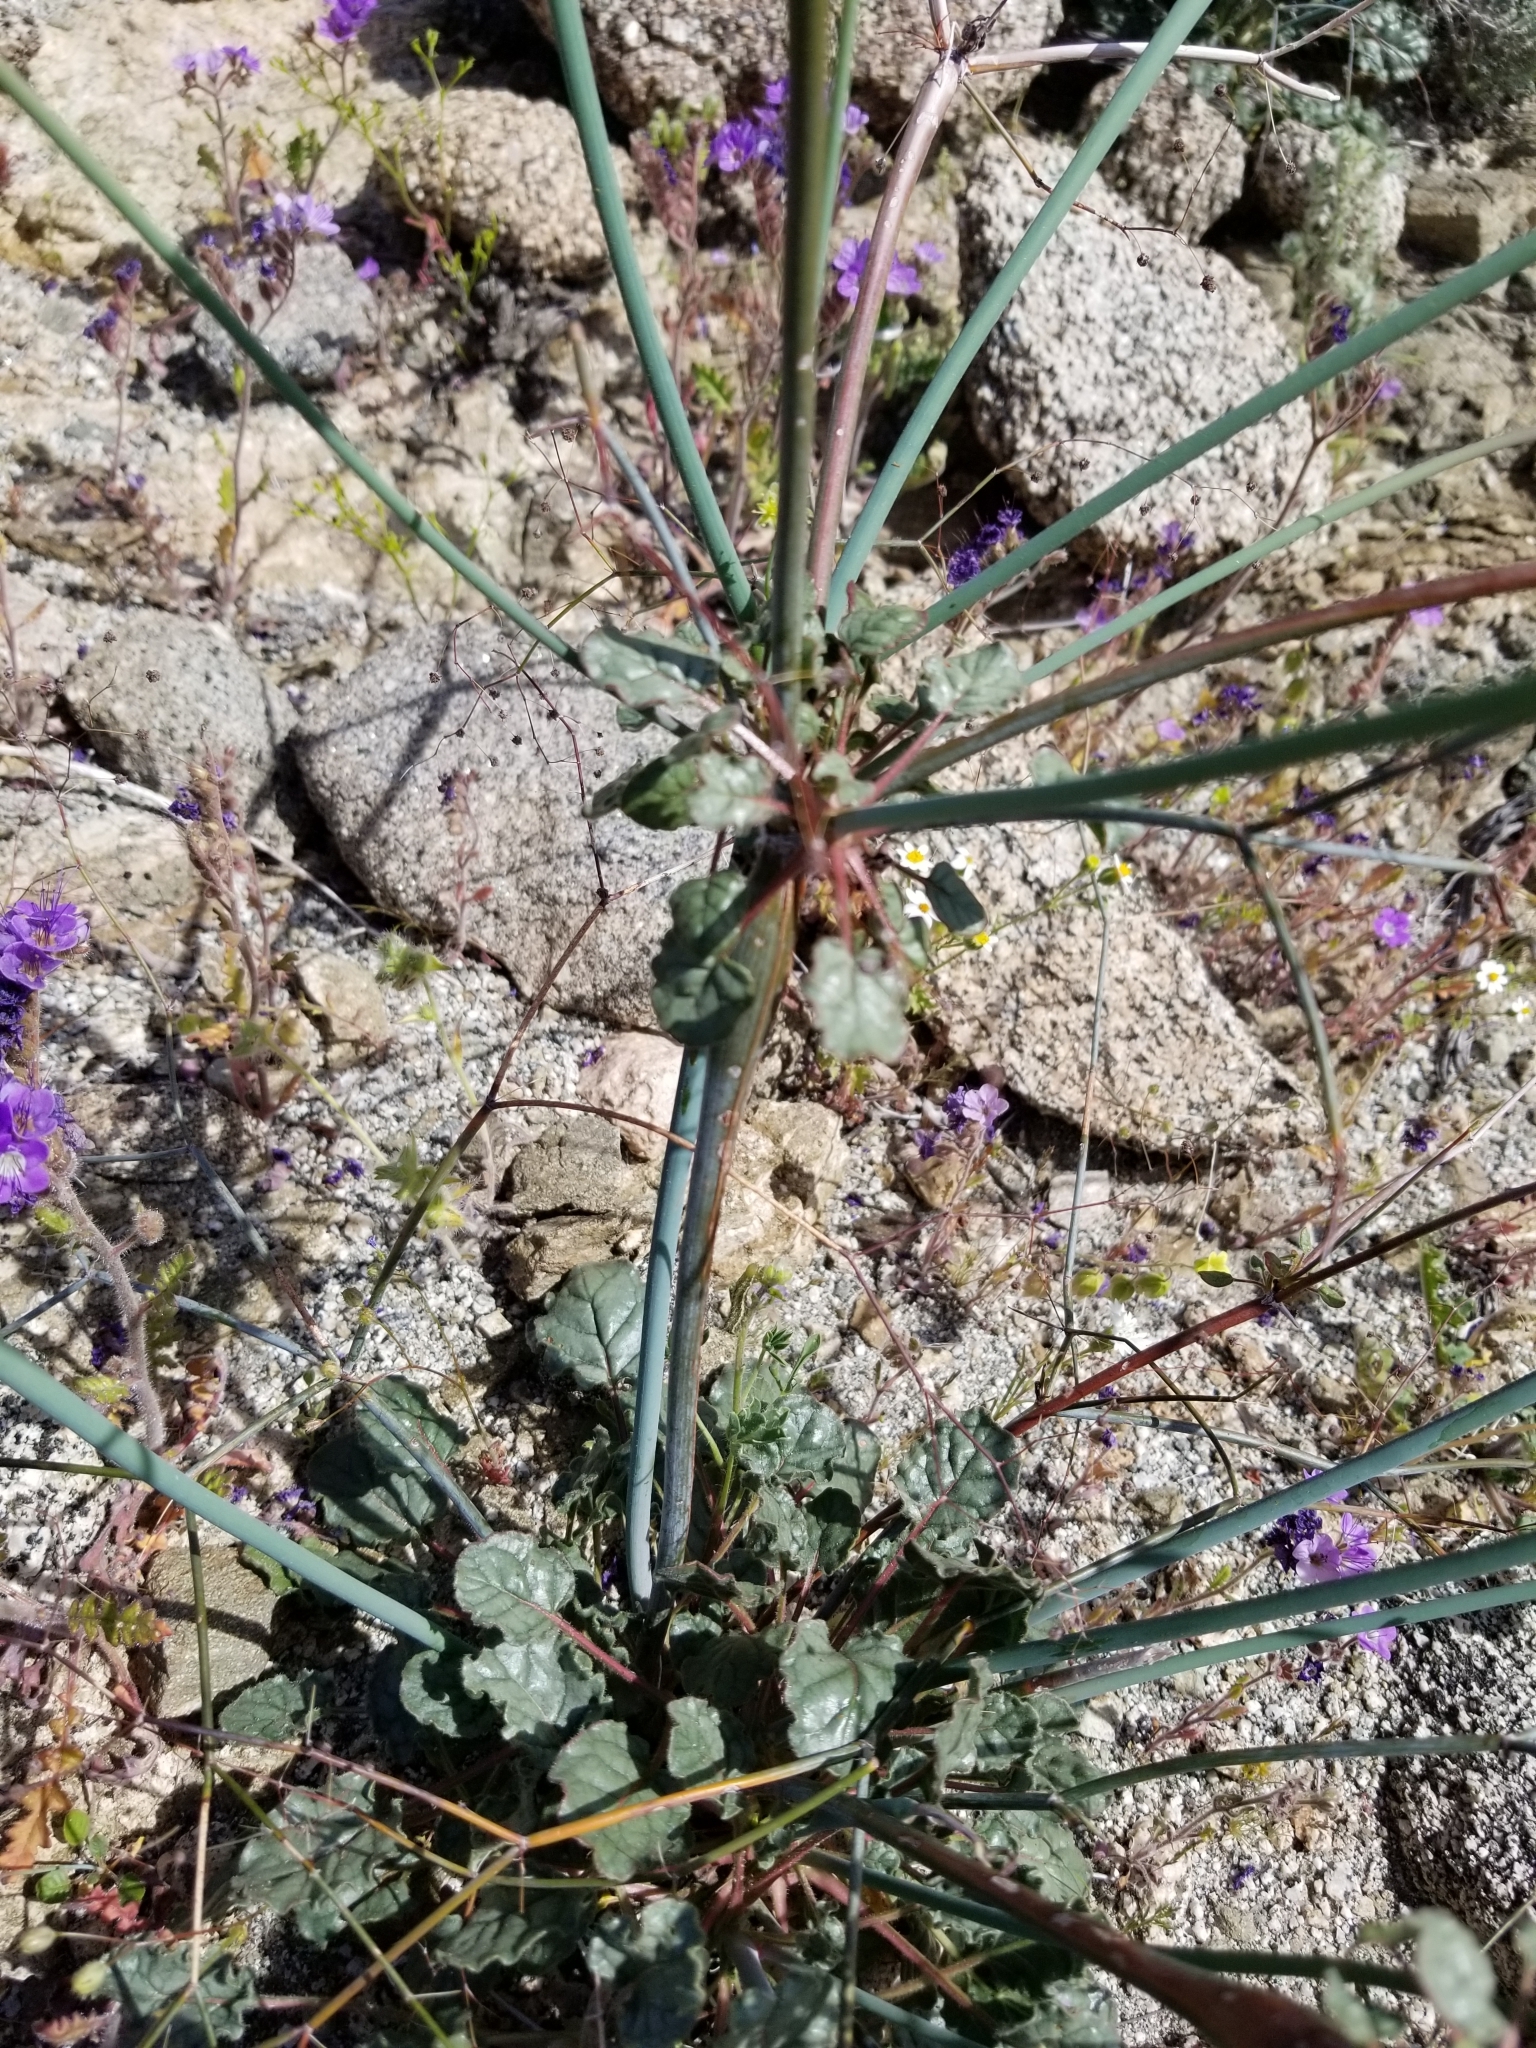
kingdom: Plantae
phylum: Tracheophyta
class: Magnoliopsida
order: Caryophyllales
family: Polygonaceae
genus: Eriogonum
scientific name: Eriogonum inflatum
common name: Desert trumpet
